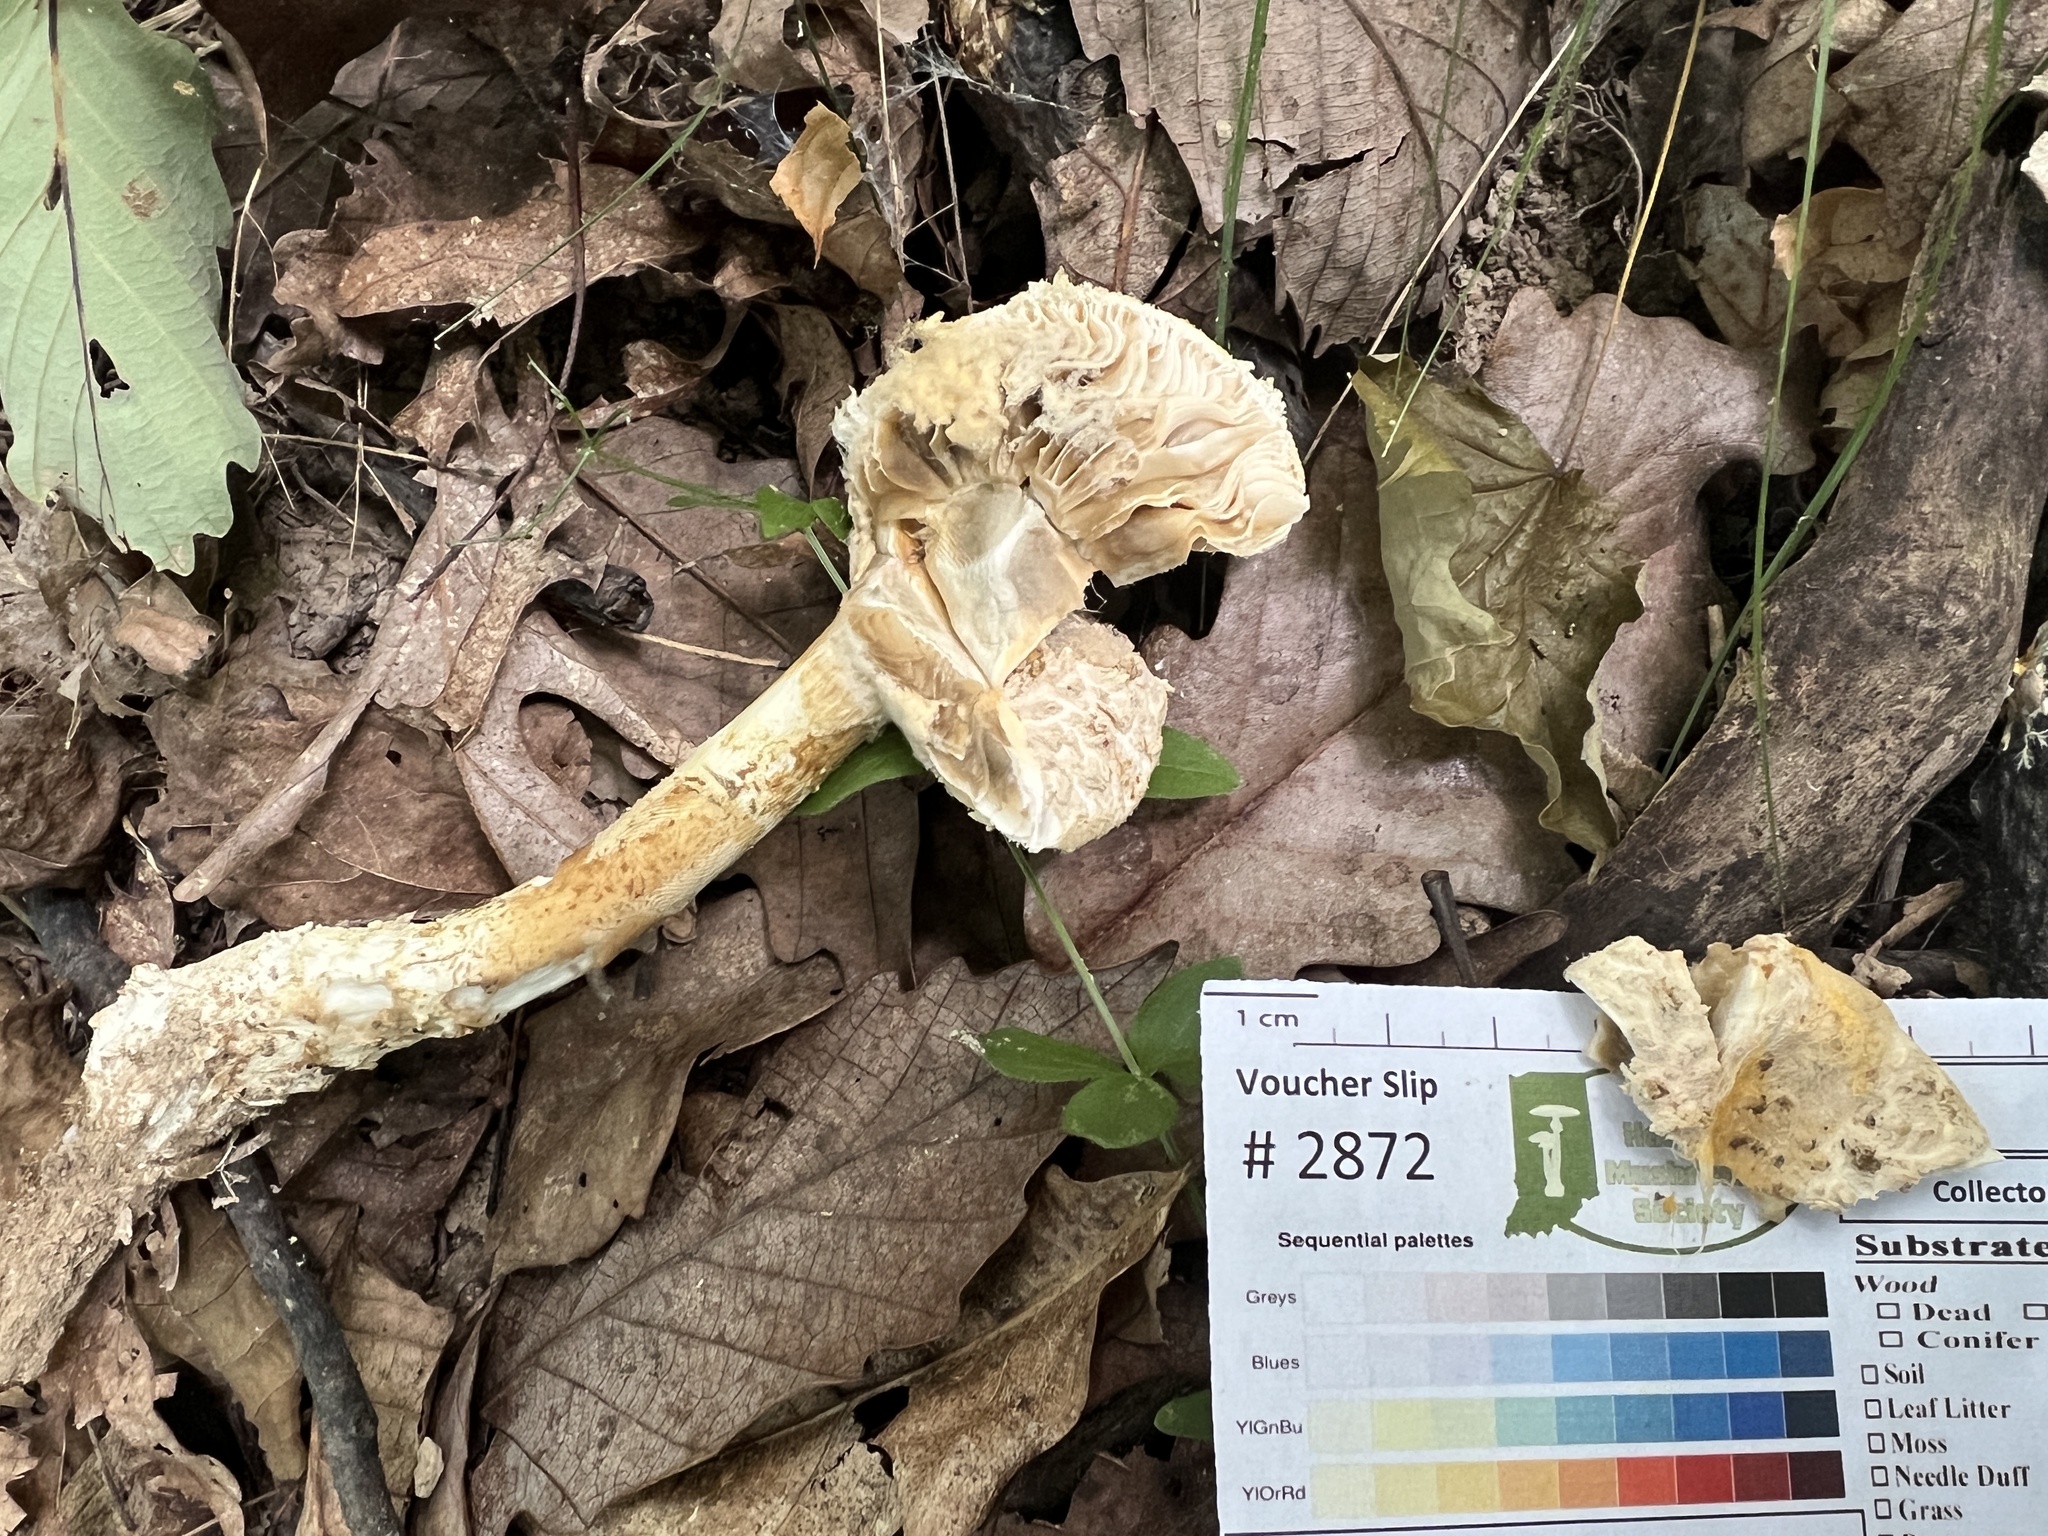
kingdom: Fungi
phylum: Mucoromycota
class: Mucoromycetes
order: Mucorales
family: Rhizopodaceae
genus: Syzygites
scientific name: Syzygites megalocarpus
